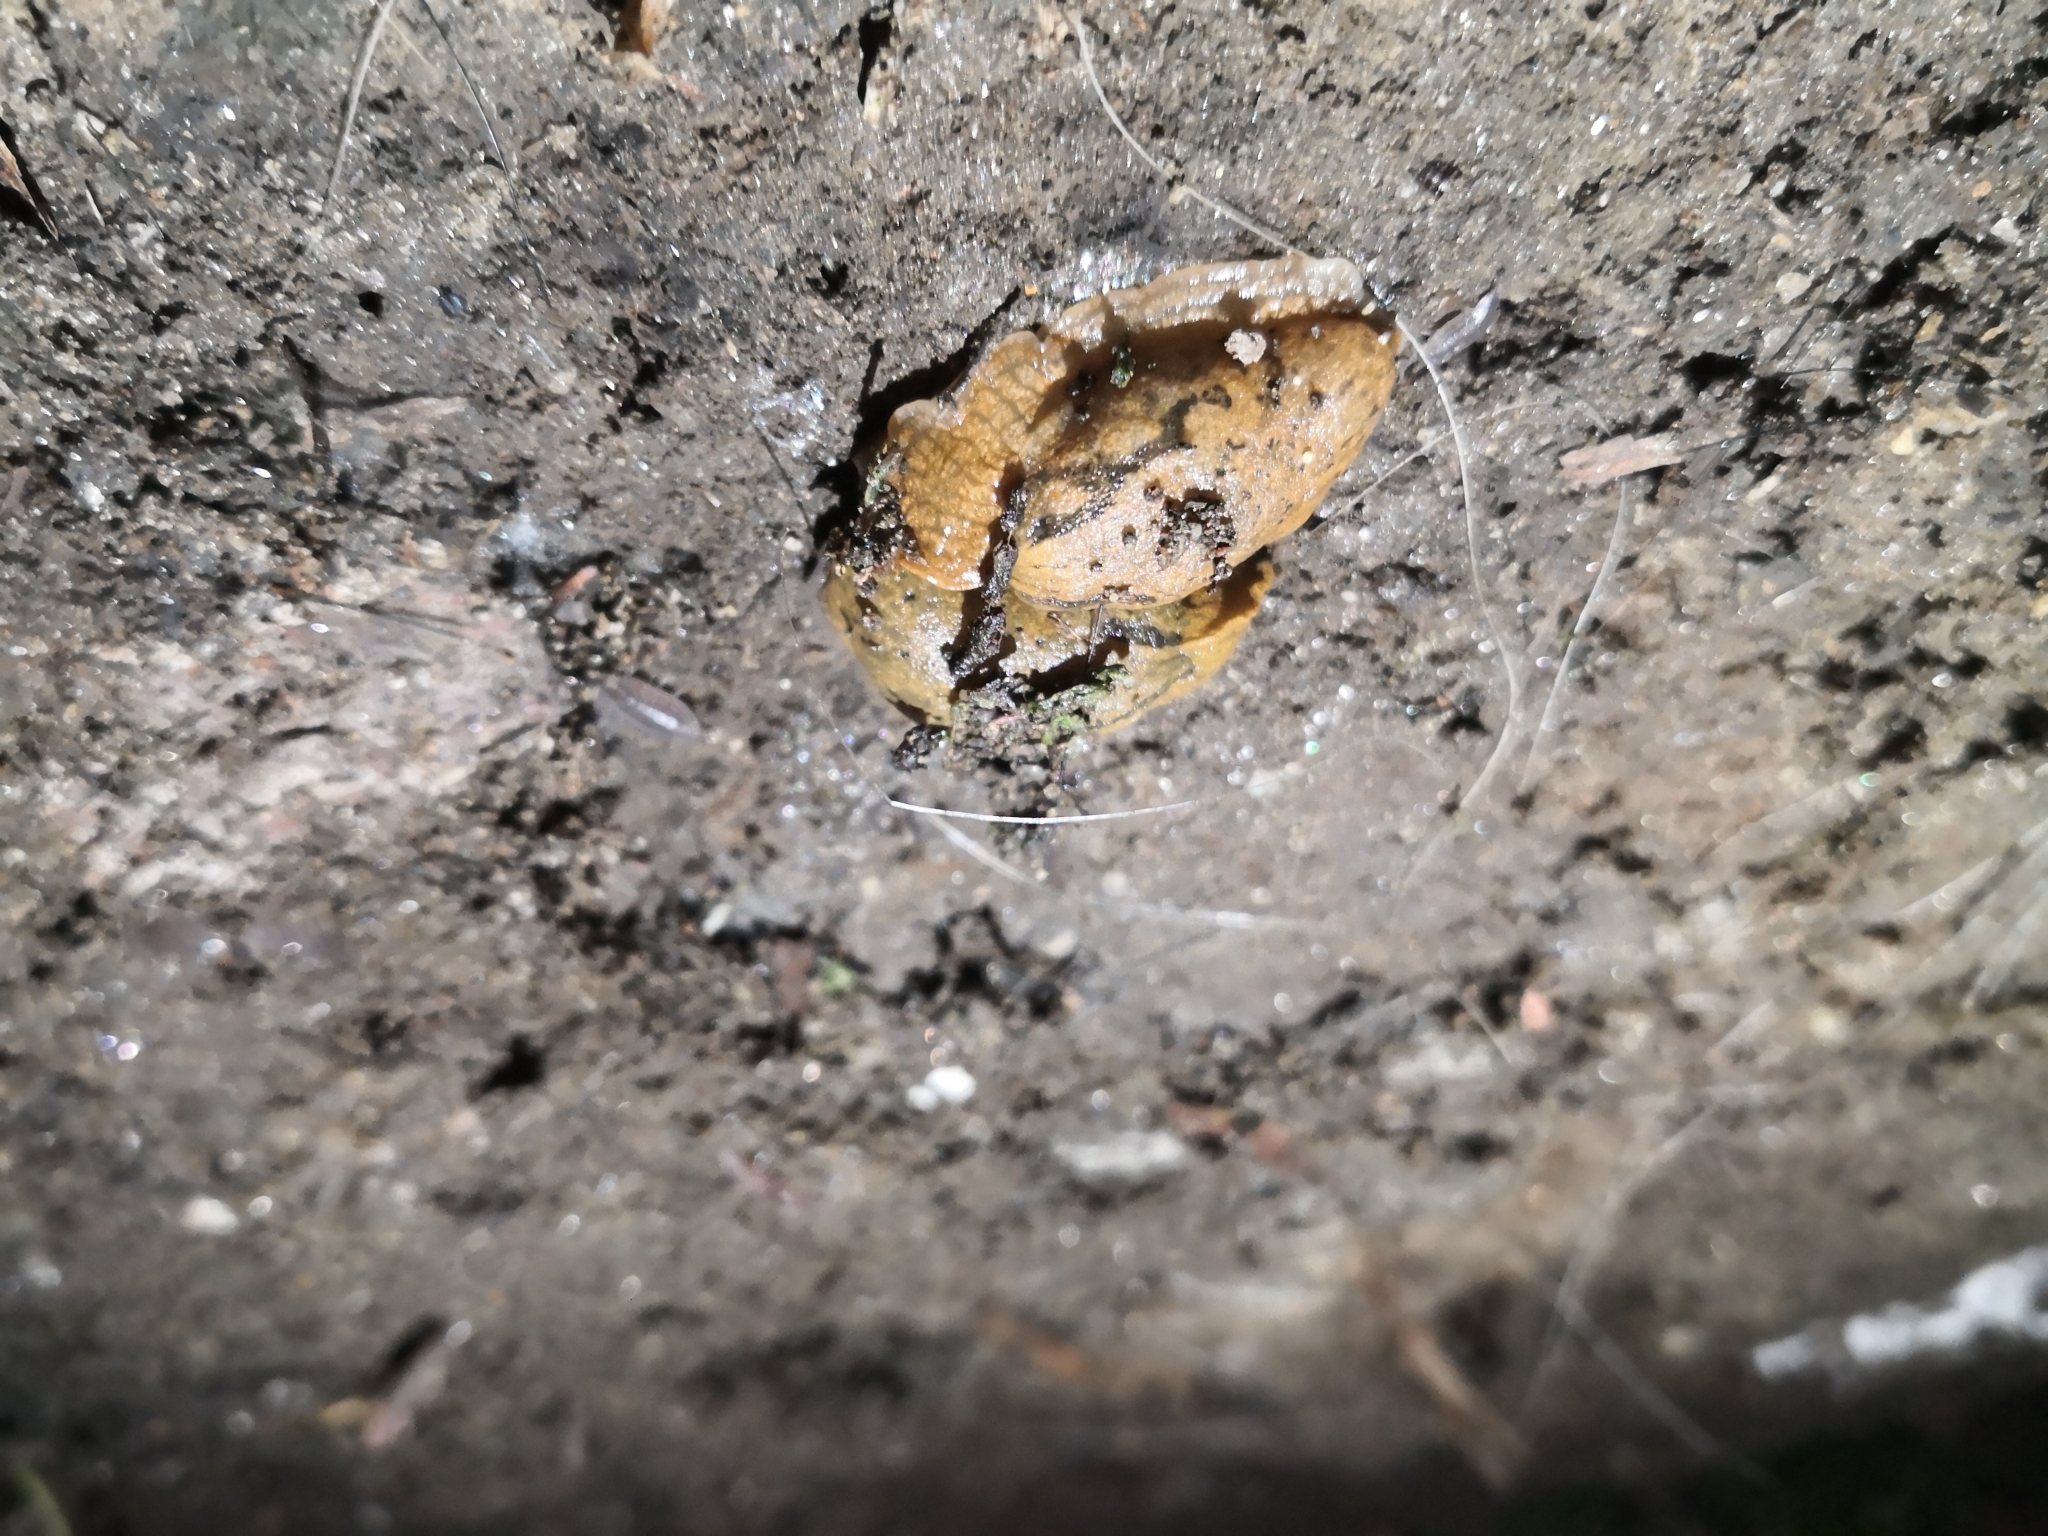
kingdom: Animalia
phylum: Mollusca
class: Gastropoda
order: Stylommatophora
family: Parmacellidae
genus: Drusia
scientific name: Drusia valenciennii
